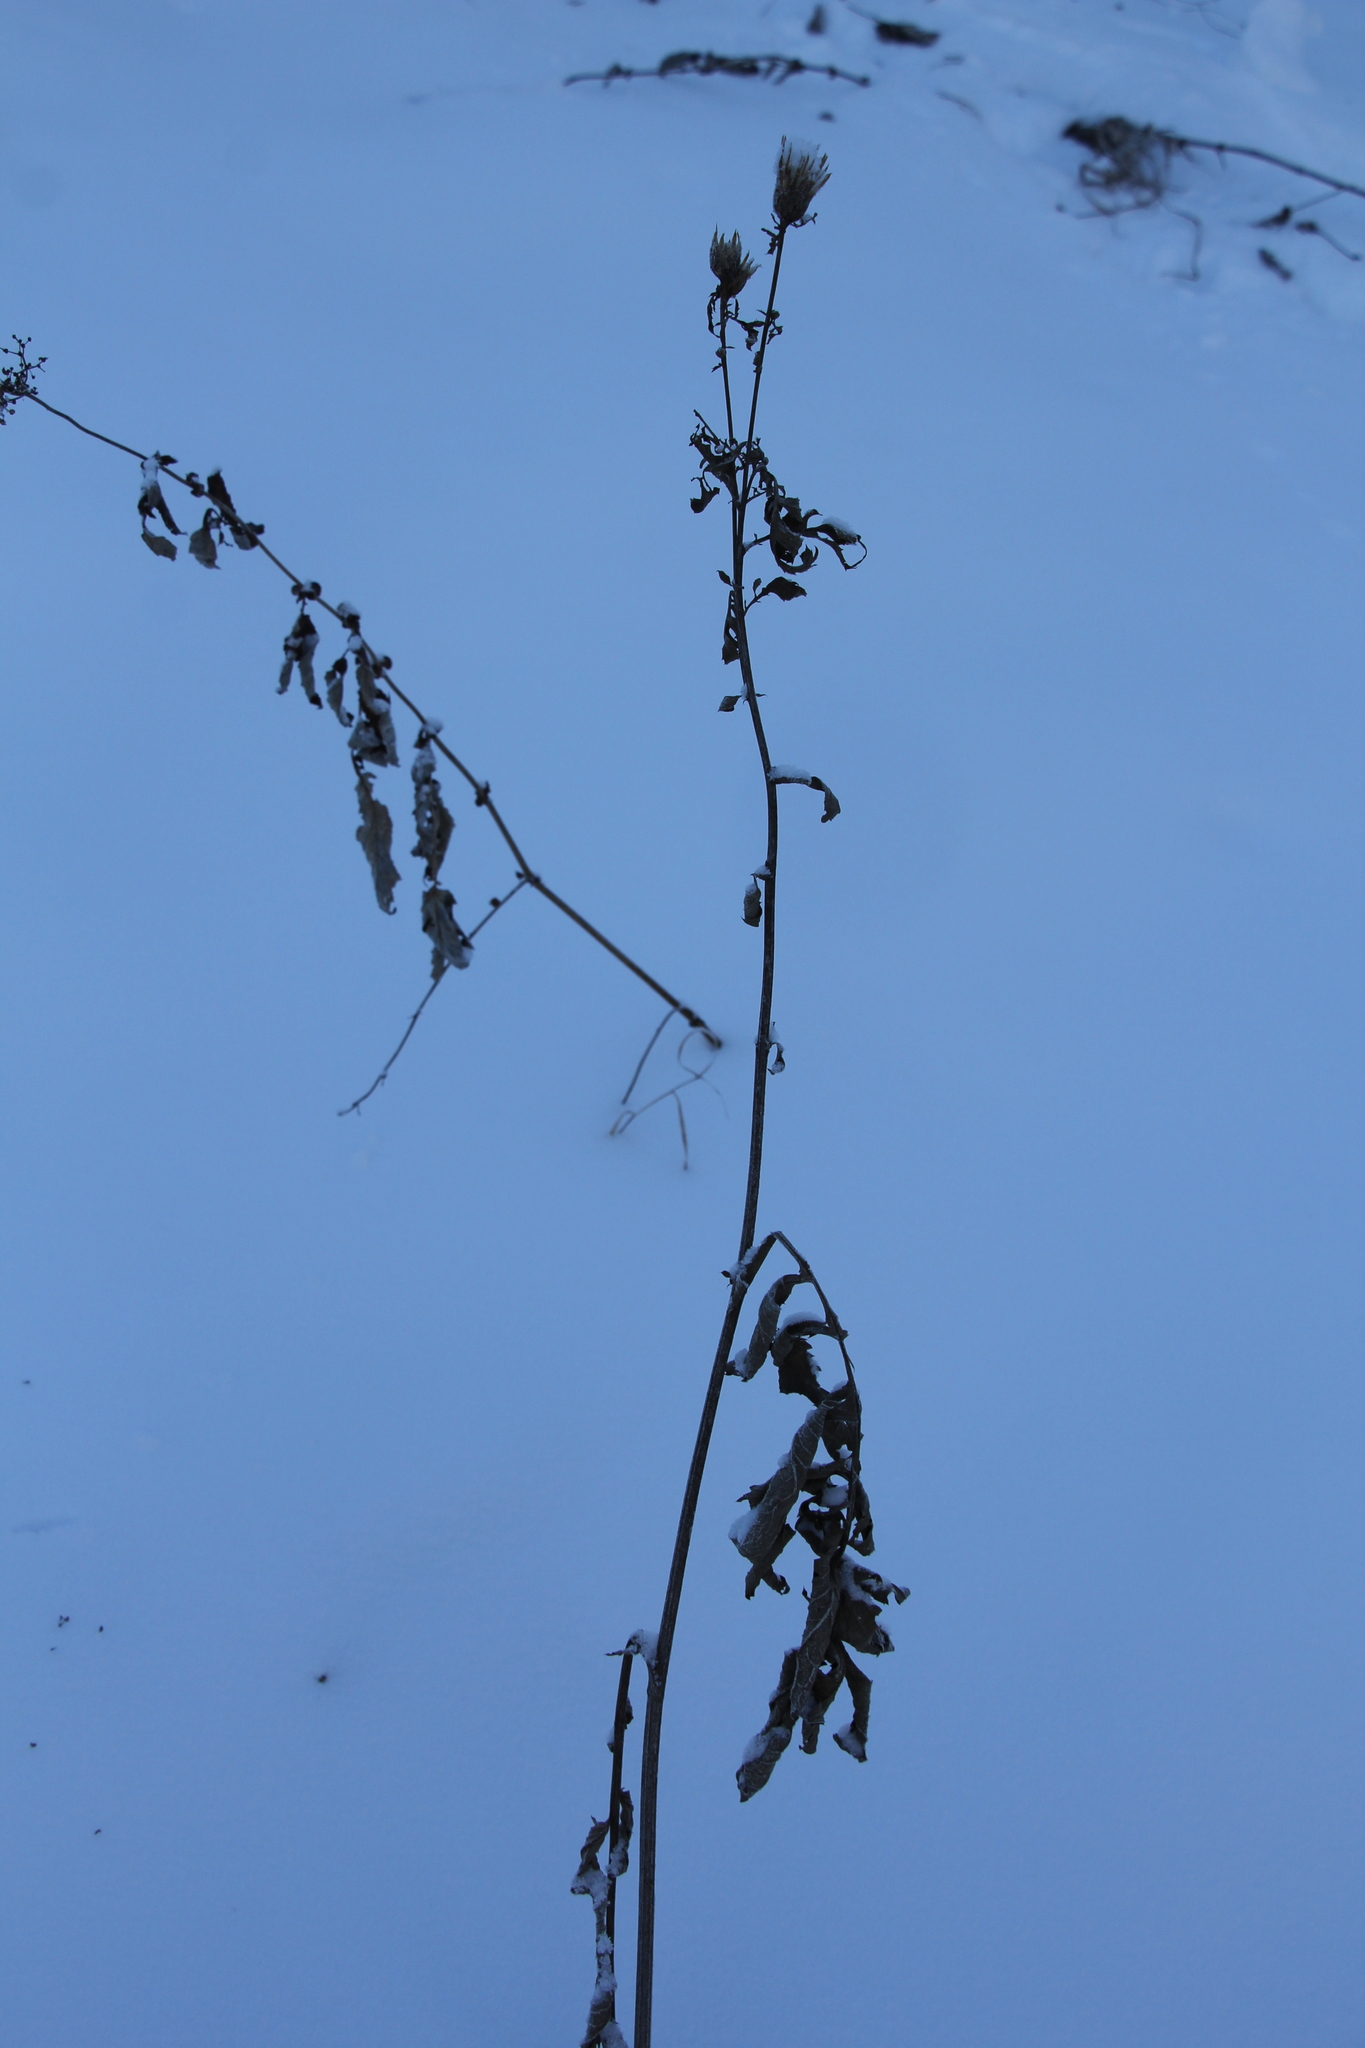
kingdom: Plantae
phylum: Tracheophyta
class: Magnoliopsida
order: Asterales
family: Asteraceae
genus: Serratula
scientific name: Serratula coronata
